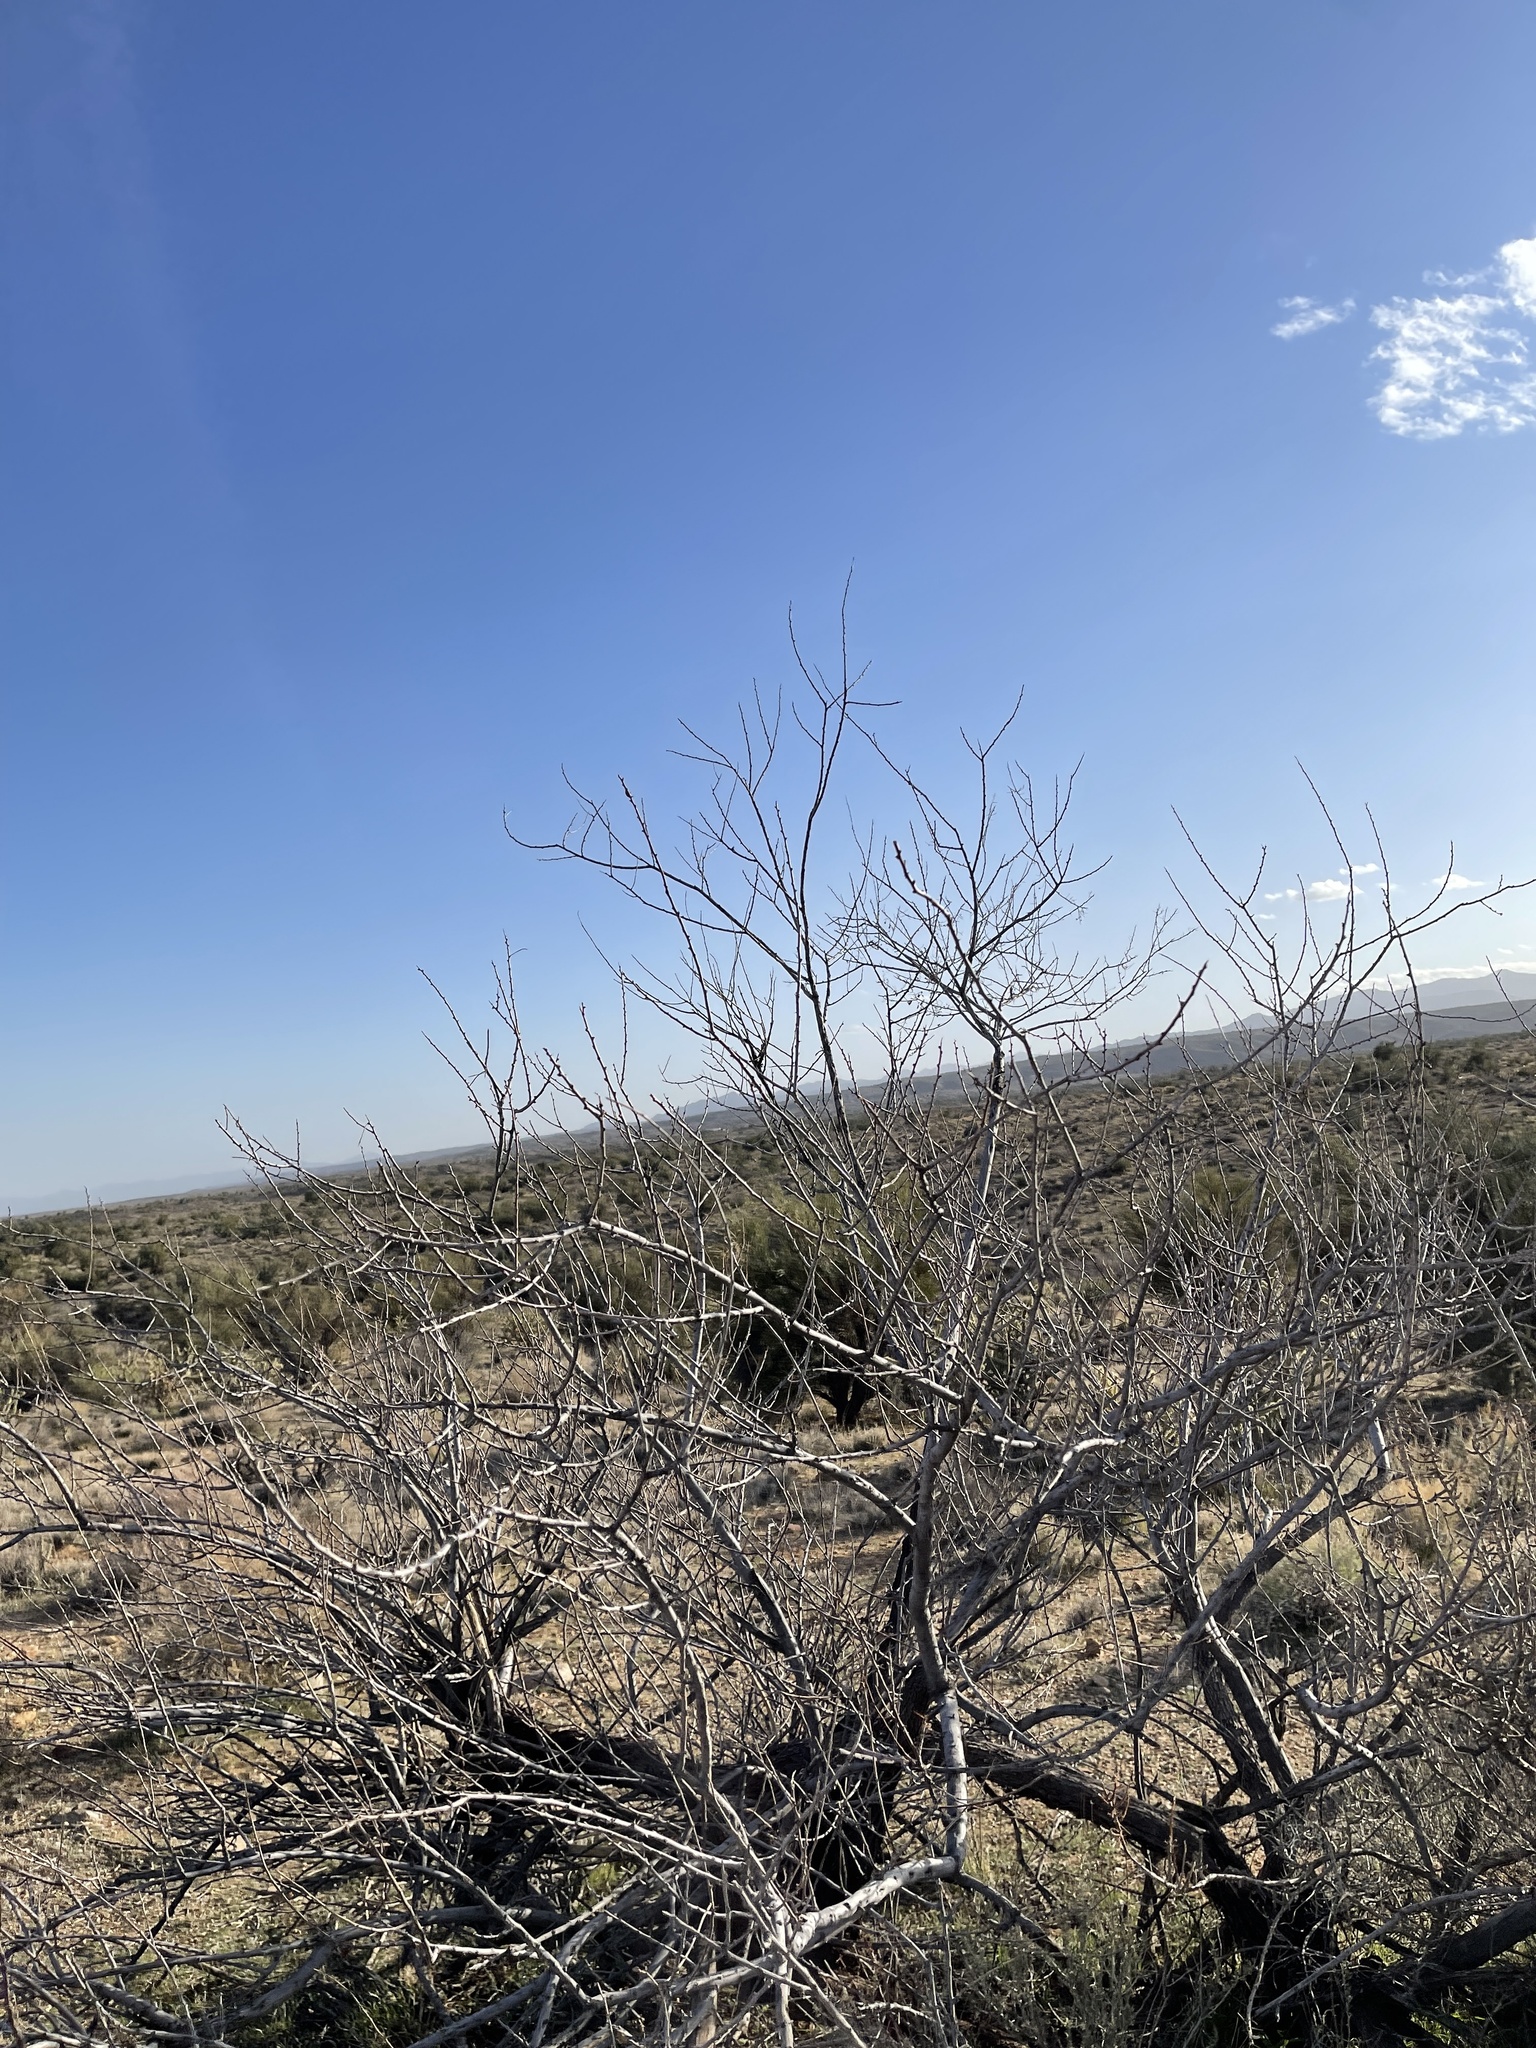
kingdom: Plantae
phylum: Tracheophyta
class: Magnoliopsida
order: Fabales
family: Fabaceae
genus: Senegalia
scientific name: Senegalia greggii
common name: Texas-mimosa
